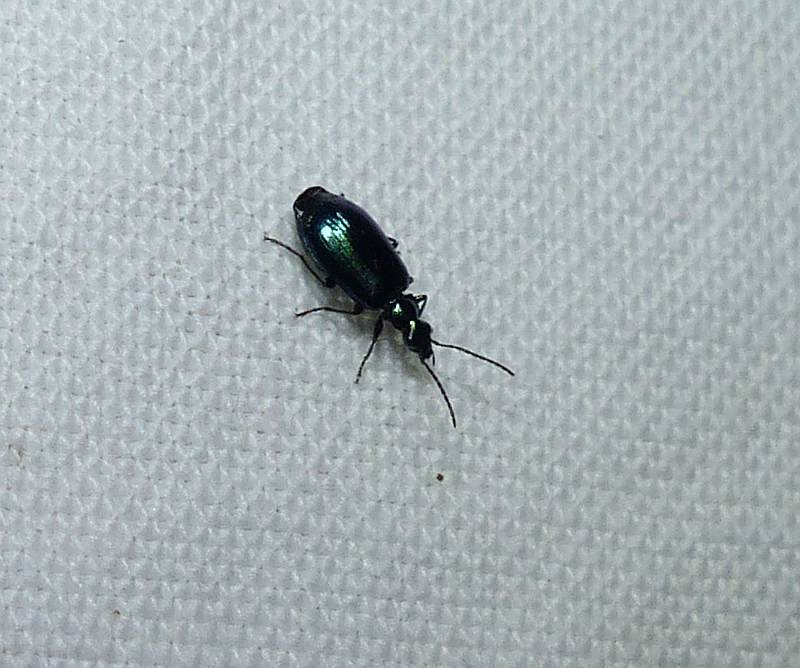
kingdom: Animalia
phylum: Arthropoda
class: Insecta
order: Coleoptera
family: Carabidae
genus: Lebia
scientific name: Lebia viridis
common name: Flower lebia beetle
